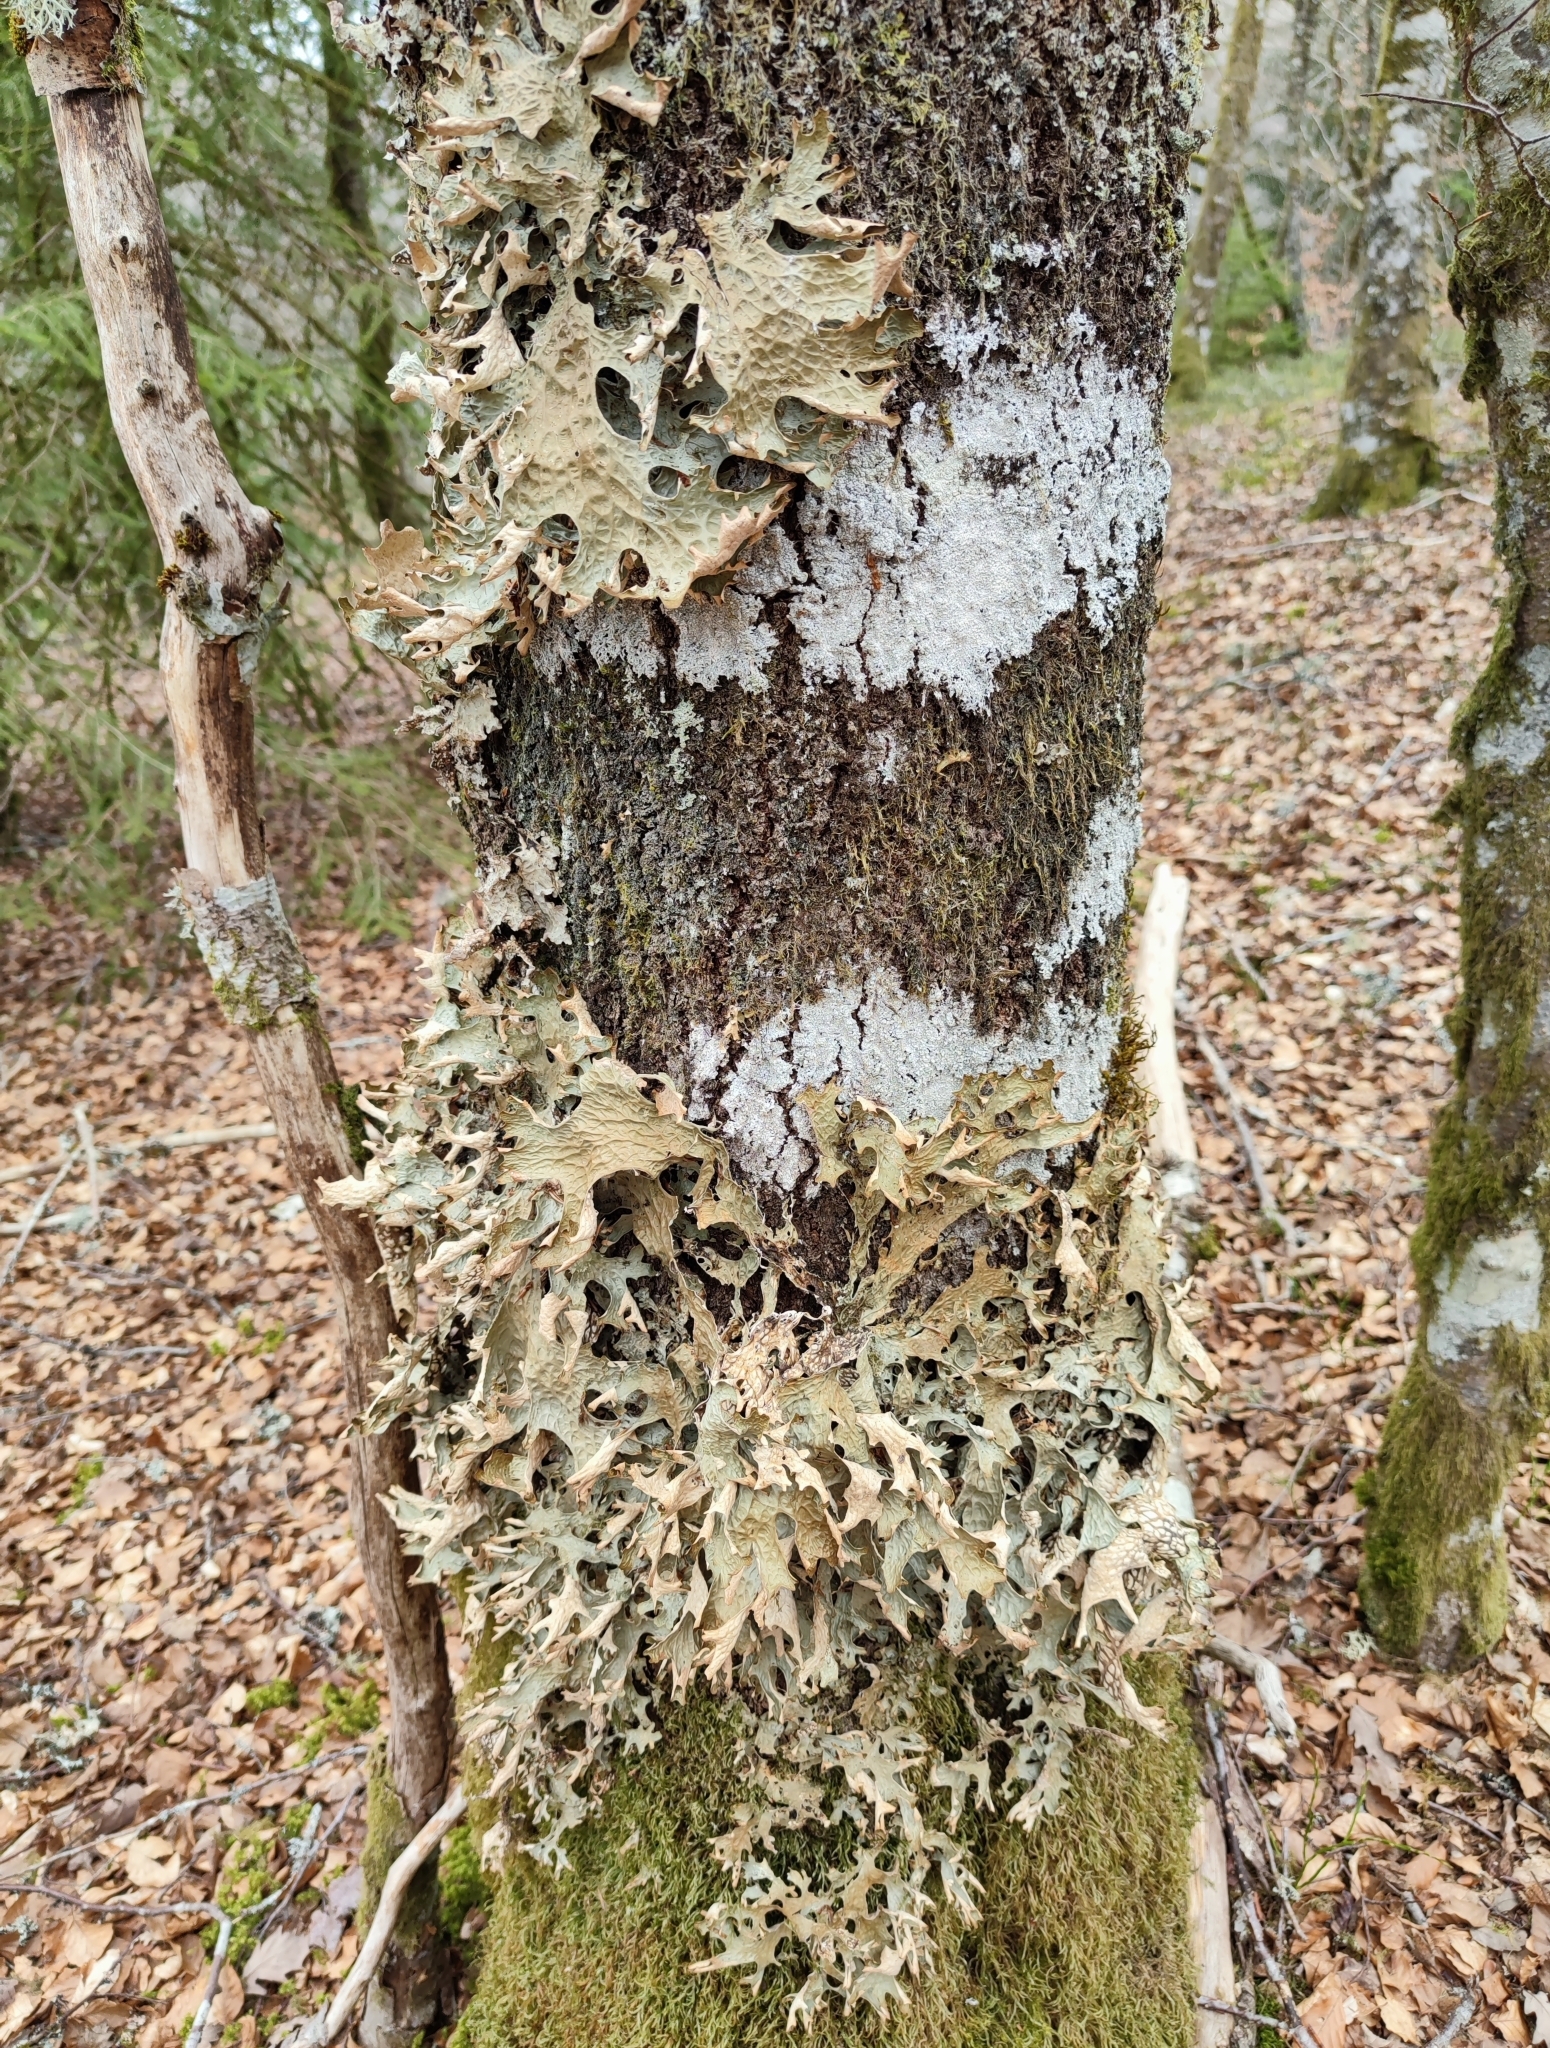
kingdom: Fungi
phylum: Ascomycota
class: Lecanoromycetes
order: Peltigerales
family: Lobariaceae
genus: Lobaria
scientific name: Lobaria pulmonaria
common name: Lungwort
